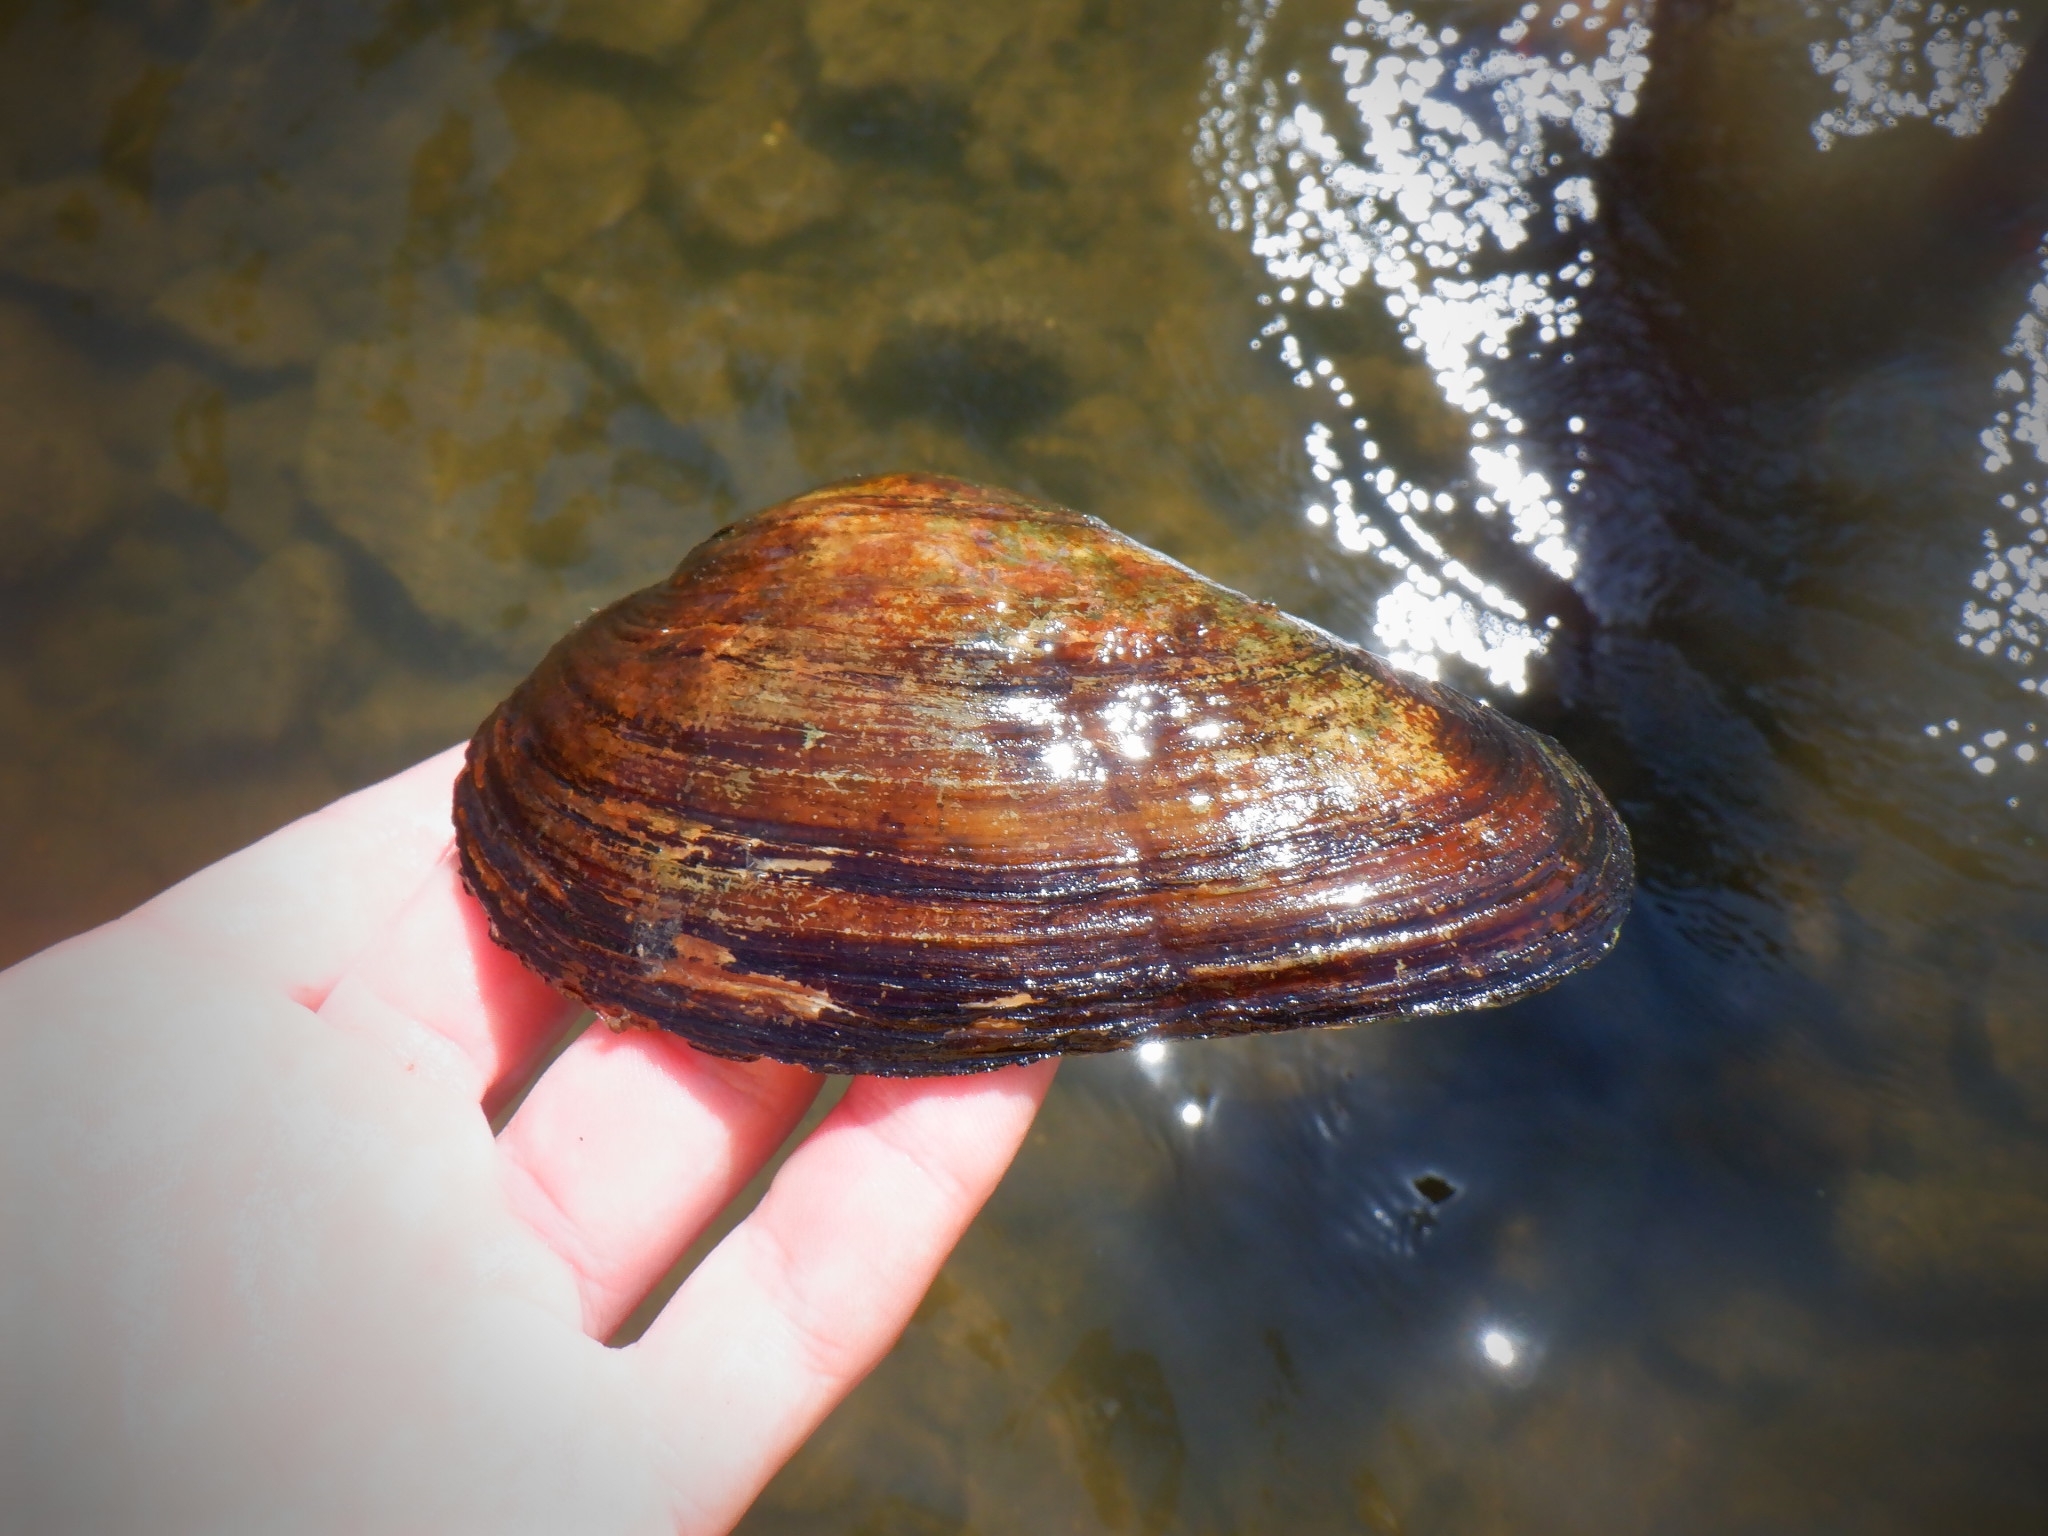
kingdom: Animalia
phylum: Mollusca
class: Bivalvia
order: Unionida
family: Unionidae
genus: Pyganodon
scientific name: Pyganodon grandis
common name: Giant floater
